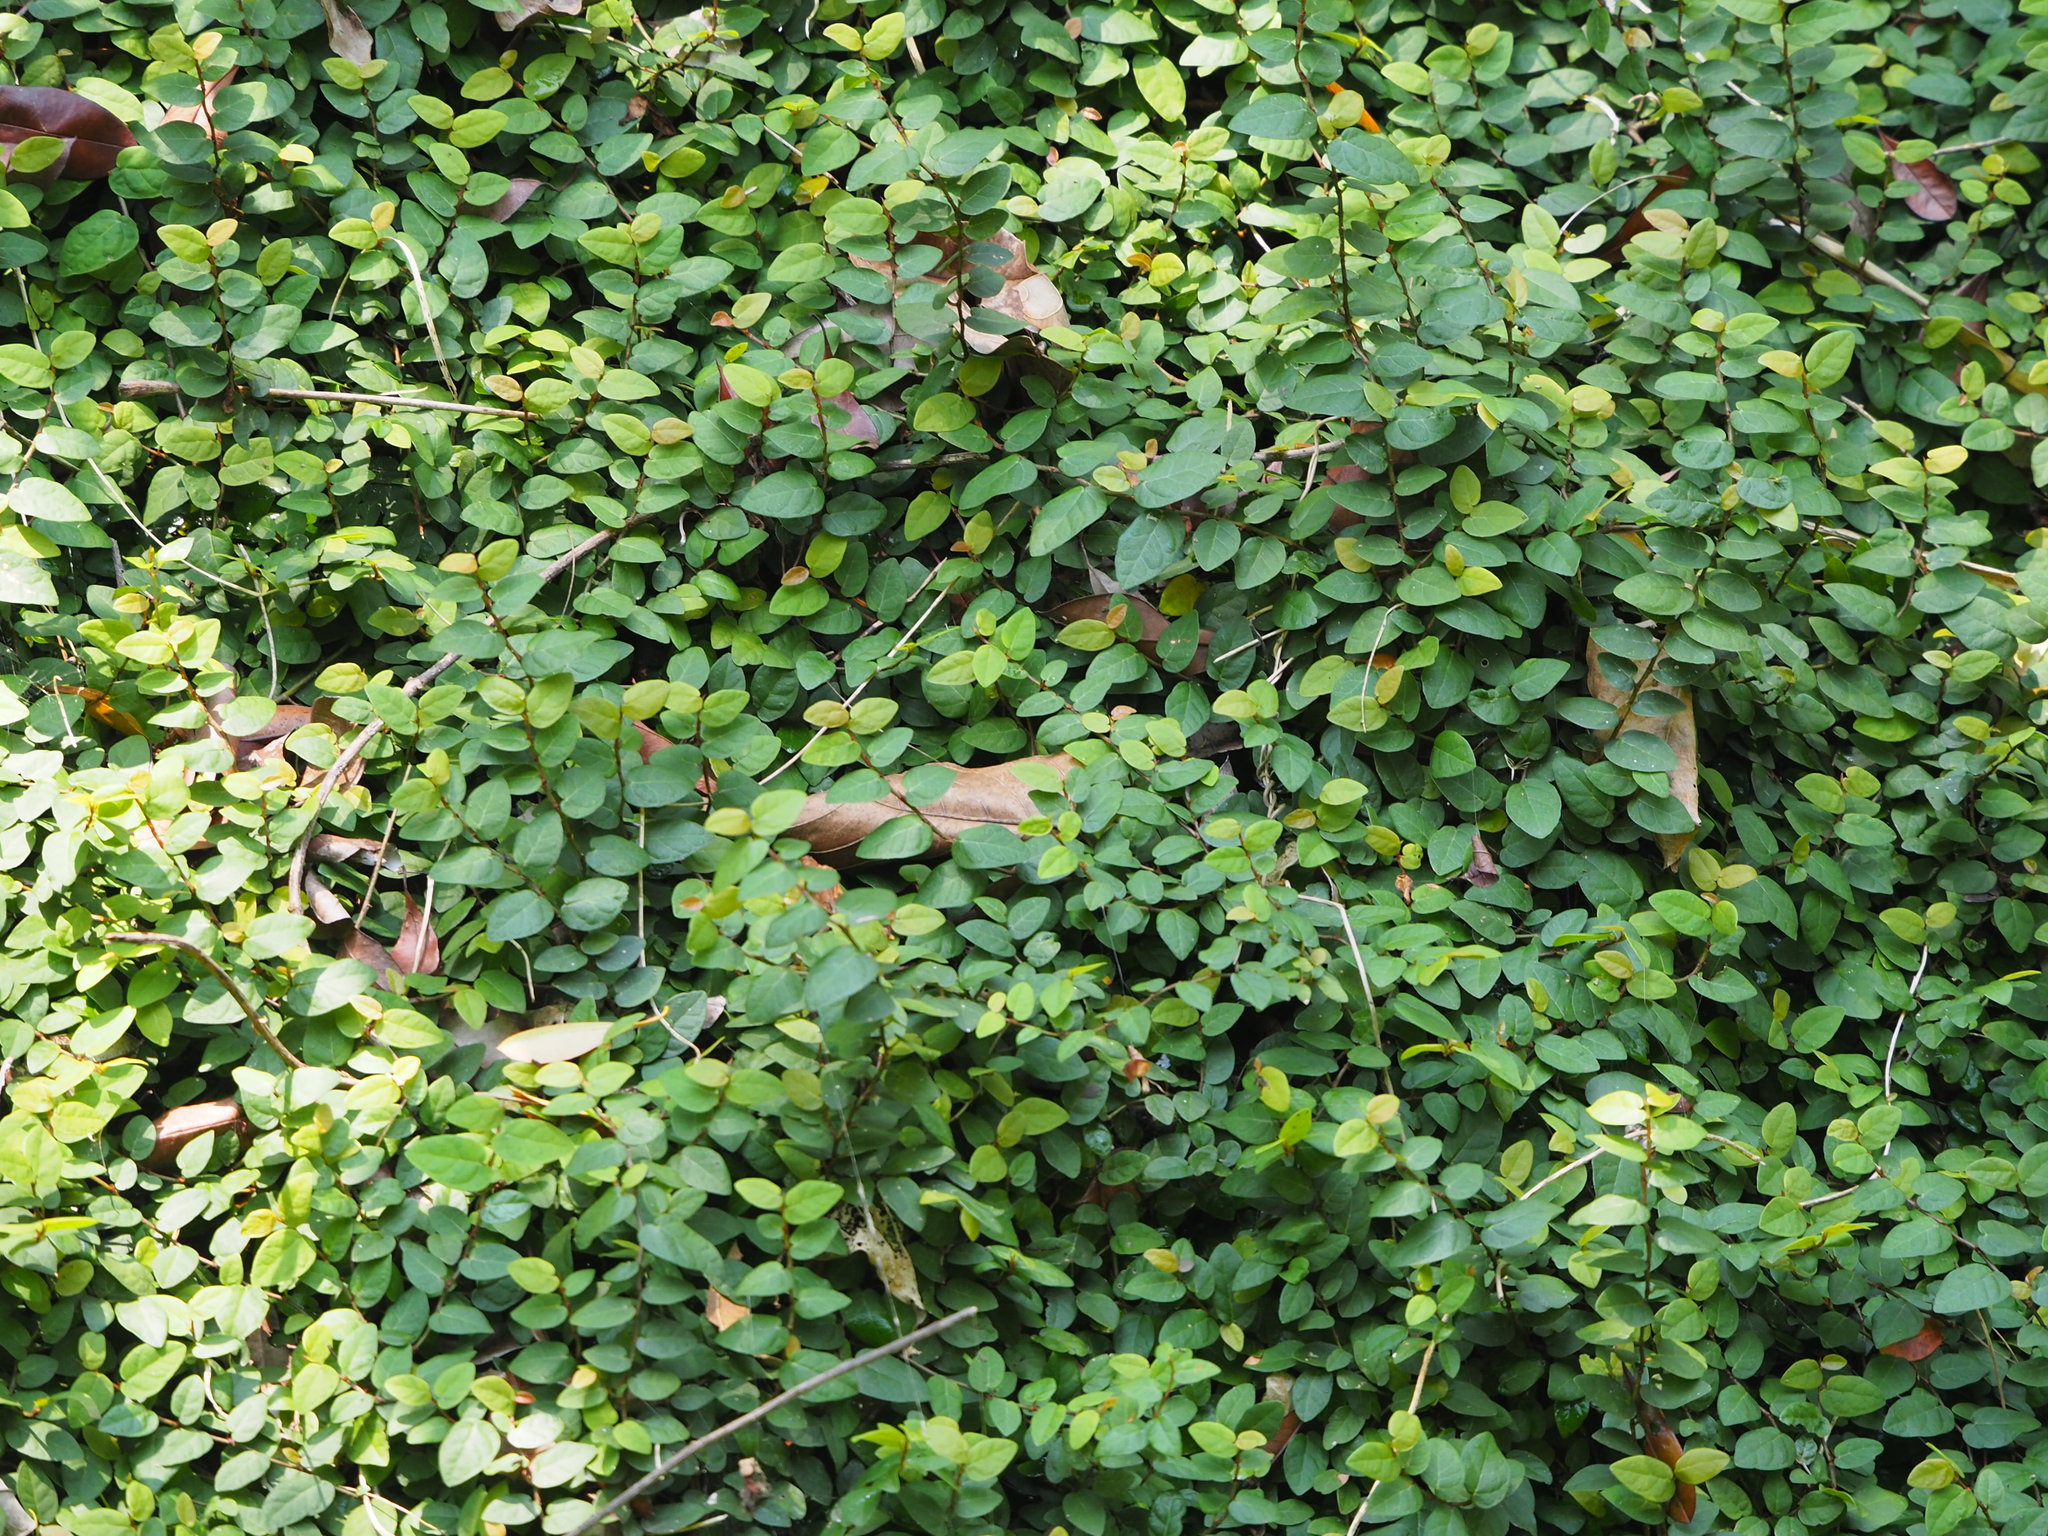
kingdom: Plantae
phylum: Tracheophyta
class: Magnoliopsida
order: Rosales
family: Moraceae
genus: Ficus
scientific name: Ficus pumila
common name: Climbingfig
